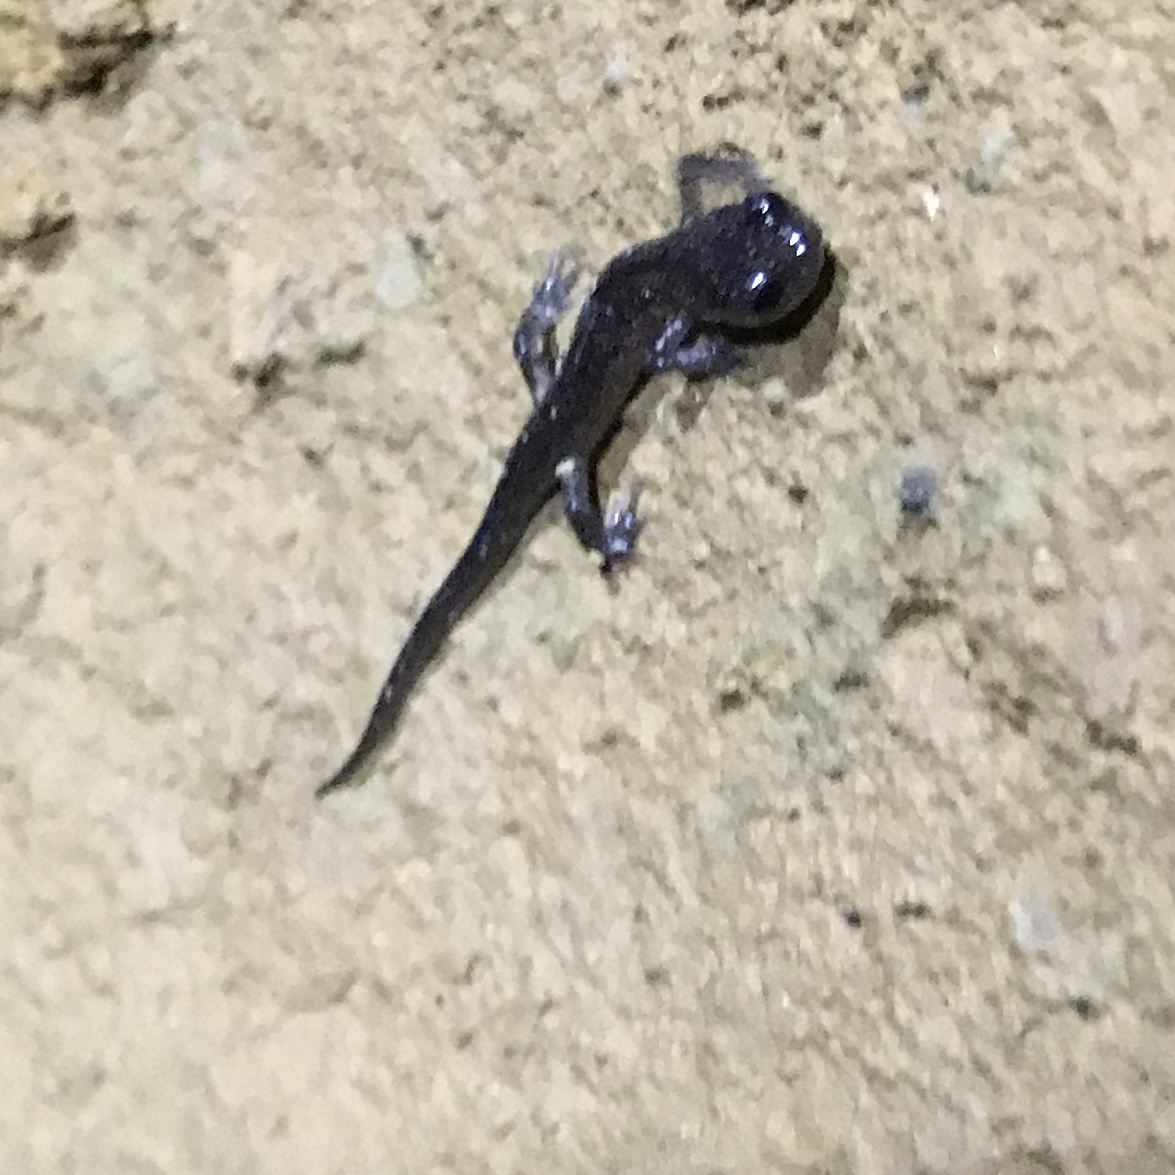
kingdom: Animalia
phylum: Chordata
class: Amphibia
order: Caudata
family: Plethodontidae
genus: Plethodon
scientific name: Plethodon glutinosus
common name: Northern slimy salamander
